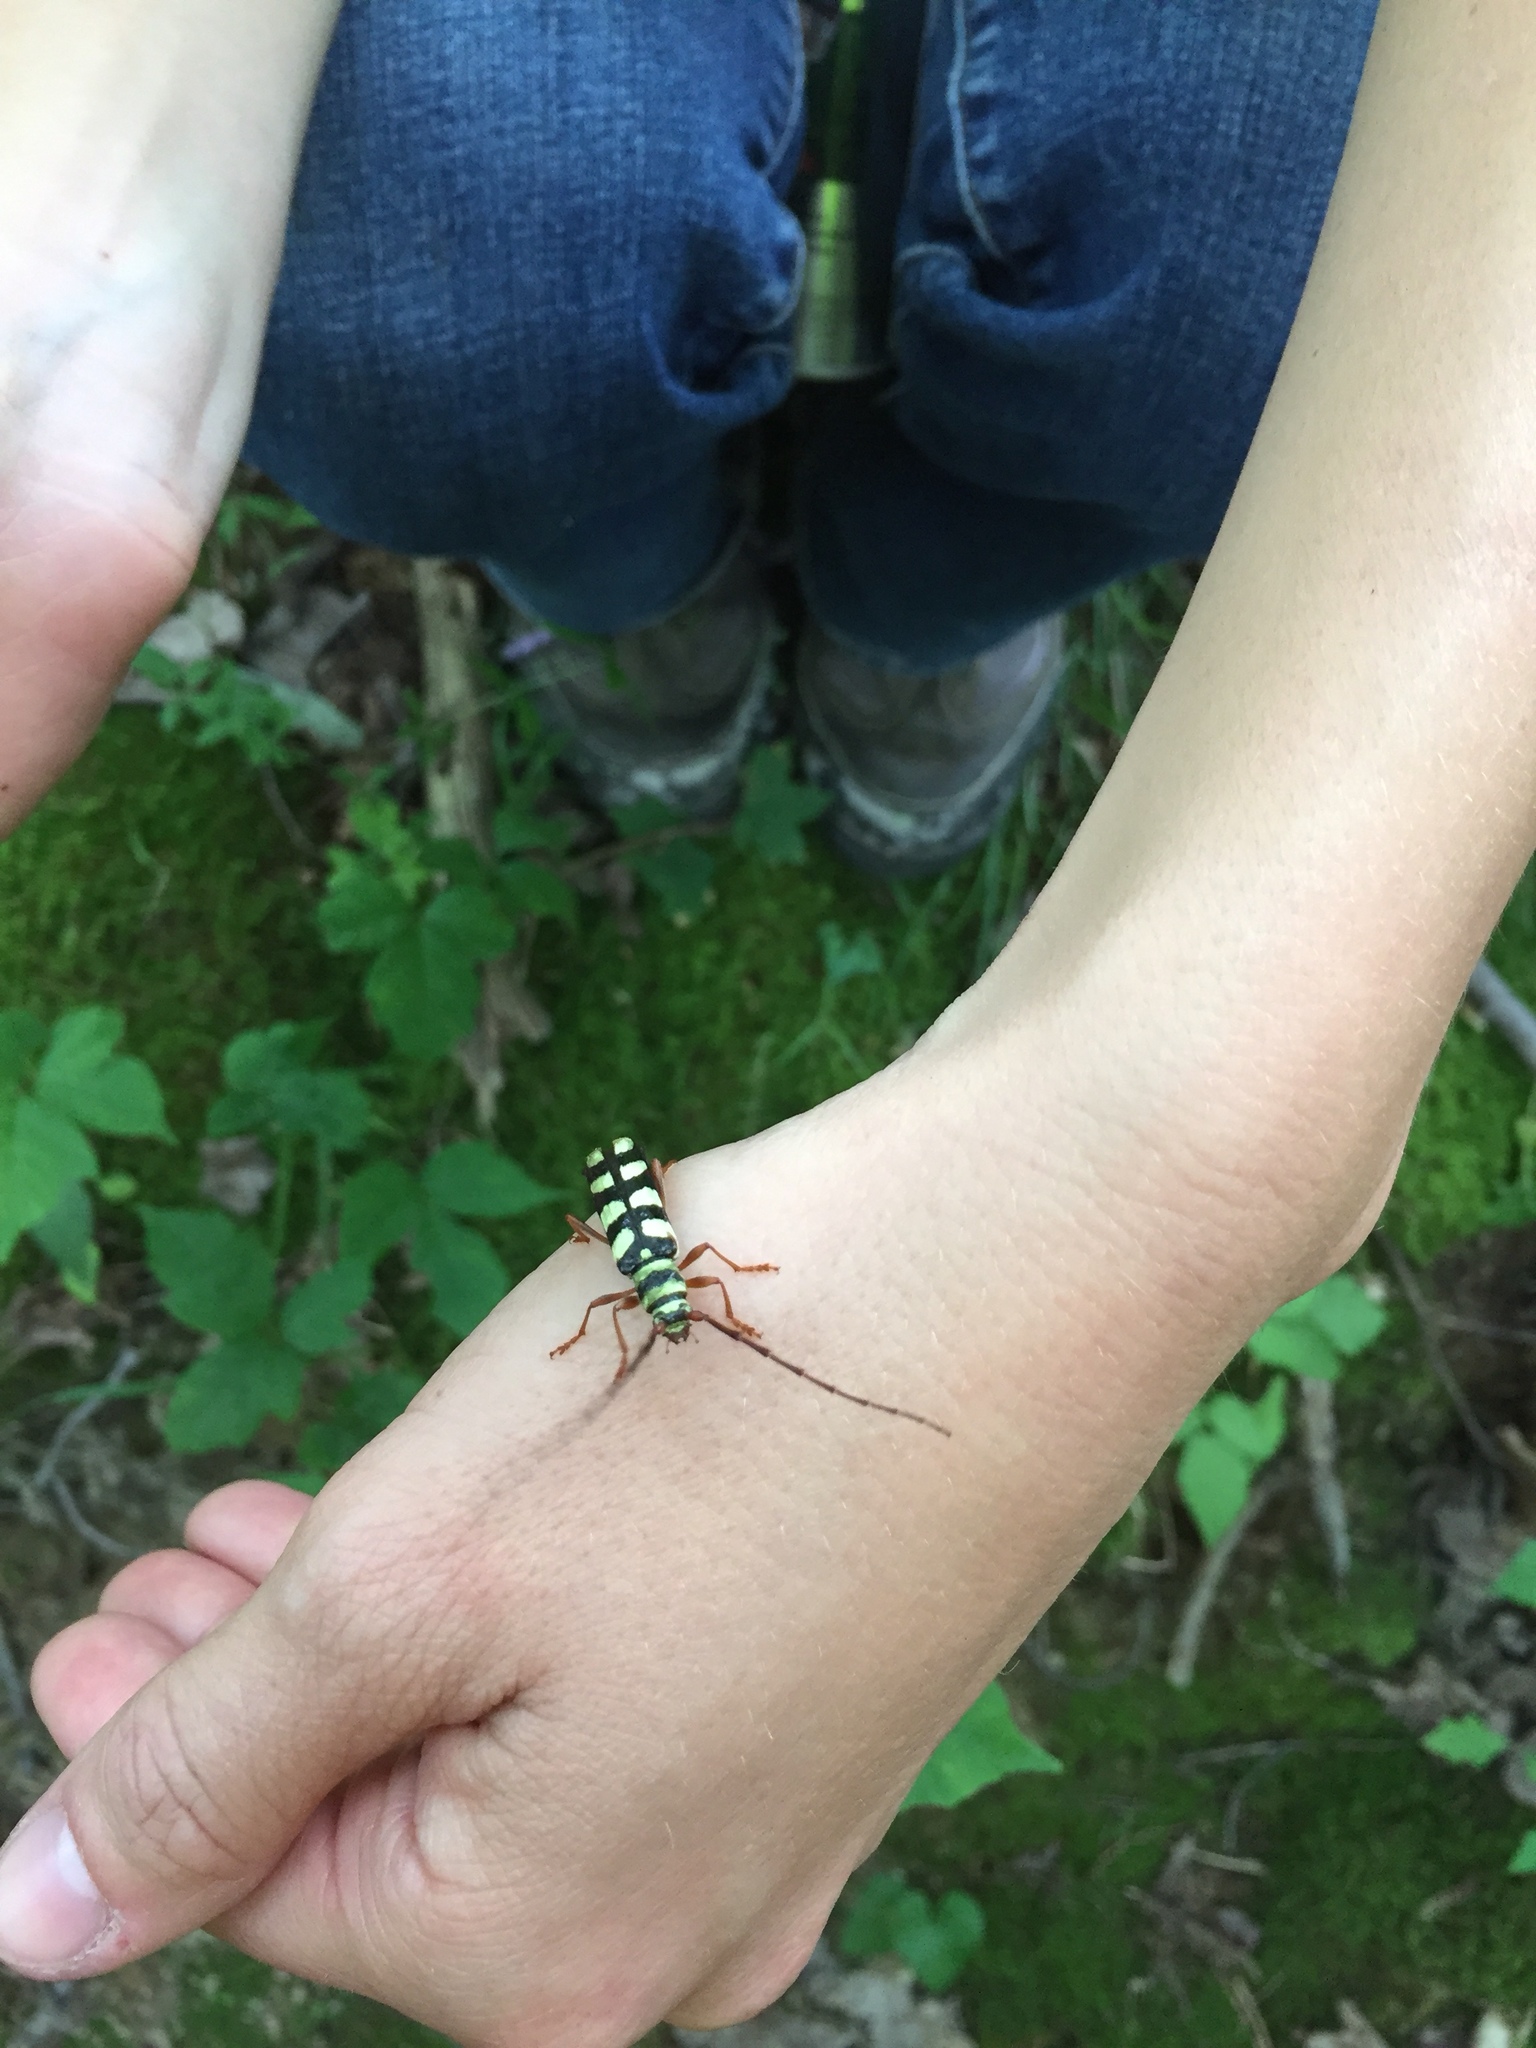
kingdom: Animalia
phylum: Arthropoda
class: Insecta
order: Coleoptera
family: Cerambycidae
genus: Dryobius
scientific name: Dryobius sexnotatus
